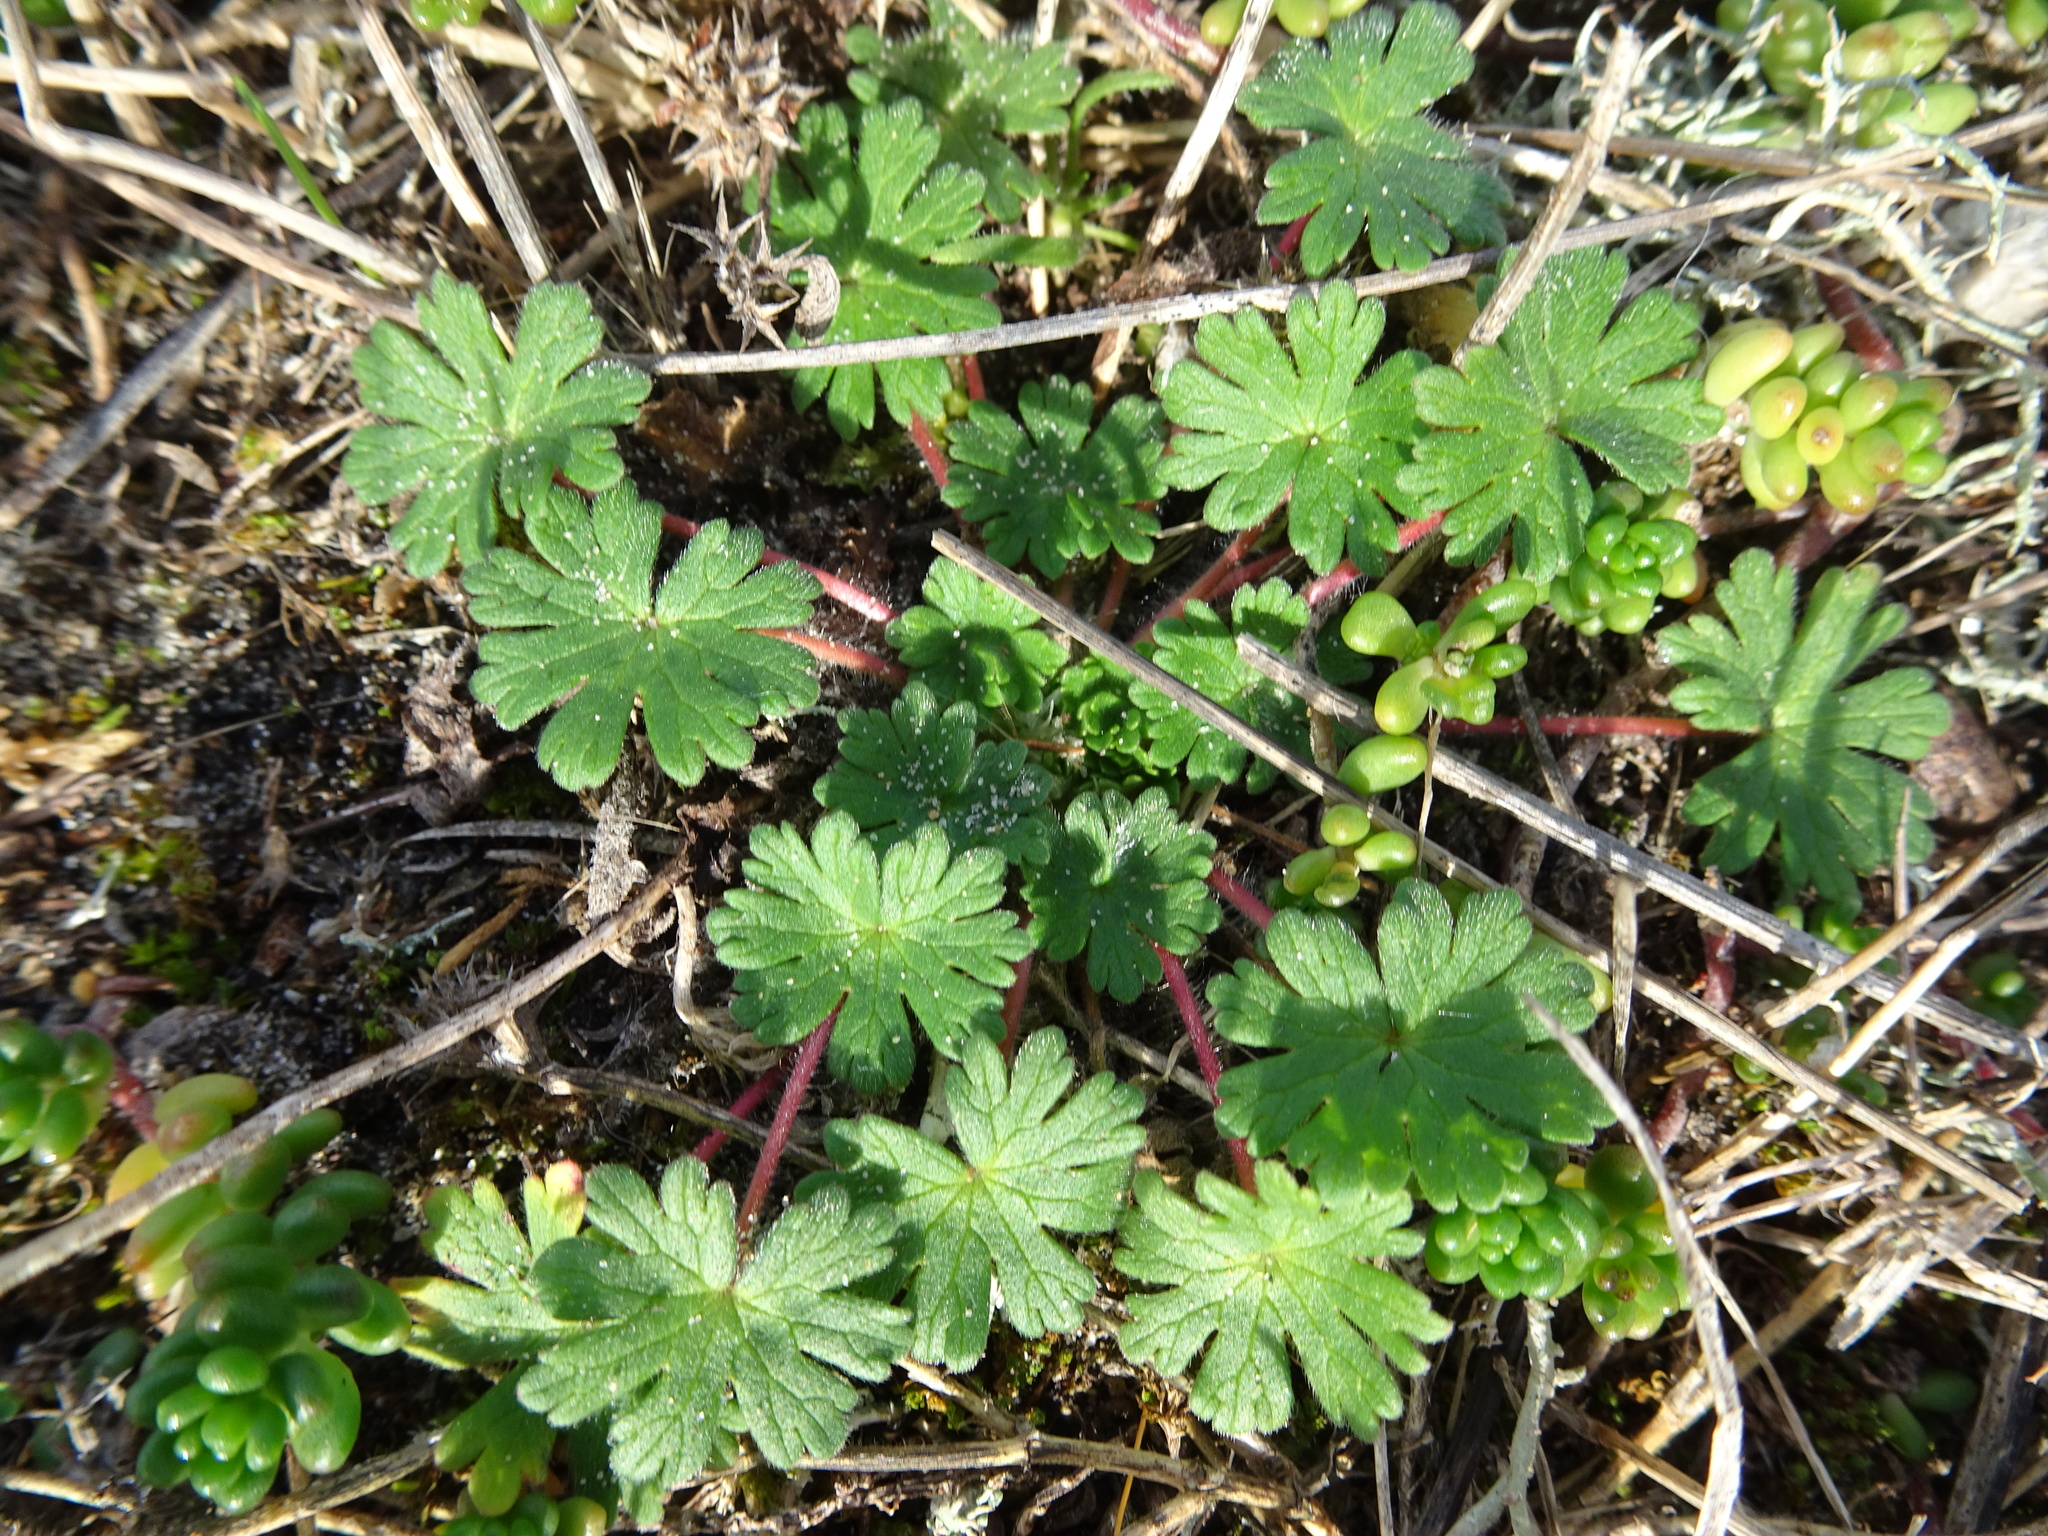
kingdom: Plantae
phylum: Tracheophyta
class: Magnoliopsida
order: Geraniales
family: Geraniaceae
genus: Geranium
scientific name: Geranium molle
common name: Dove's-foot crane's-bill
